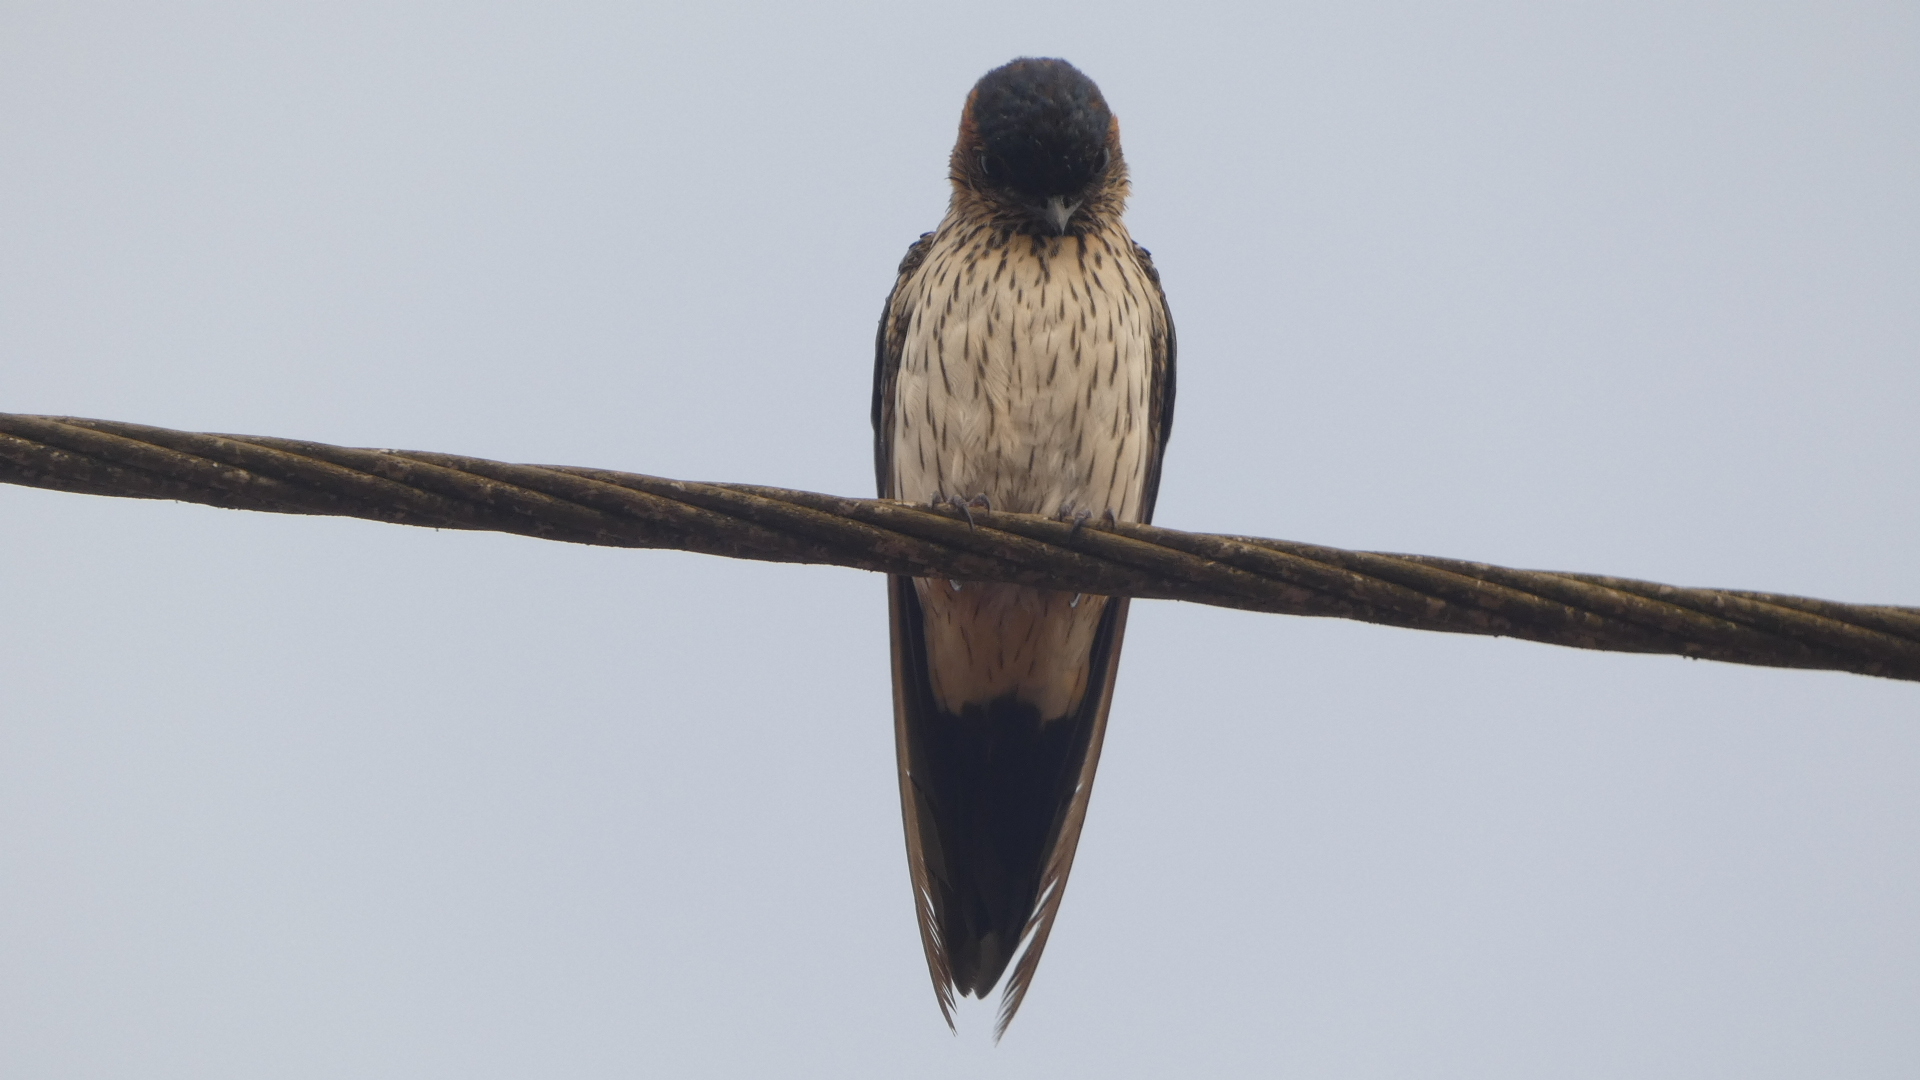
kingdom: Animalia
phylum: Chordata
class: Aves
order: Passeriformes
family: Hirundinidae
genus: Cecropis
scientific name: Cecropis daurica
